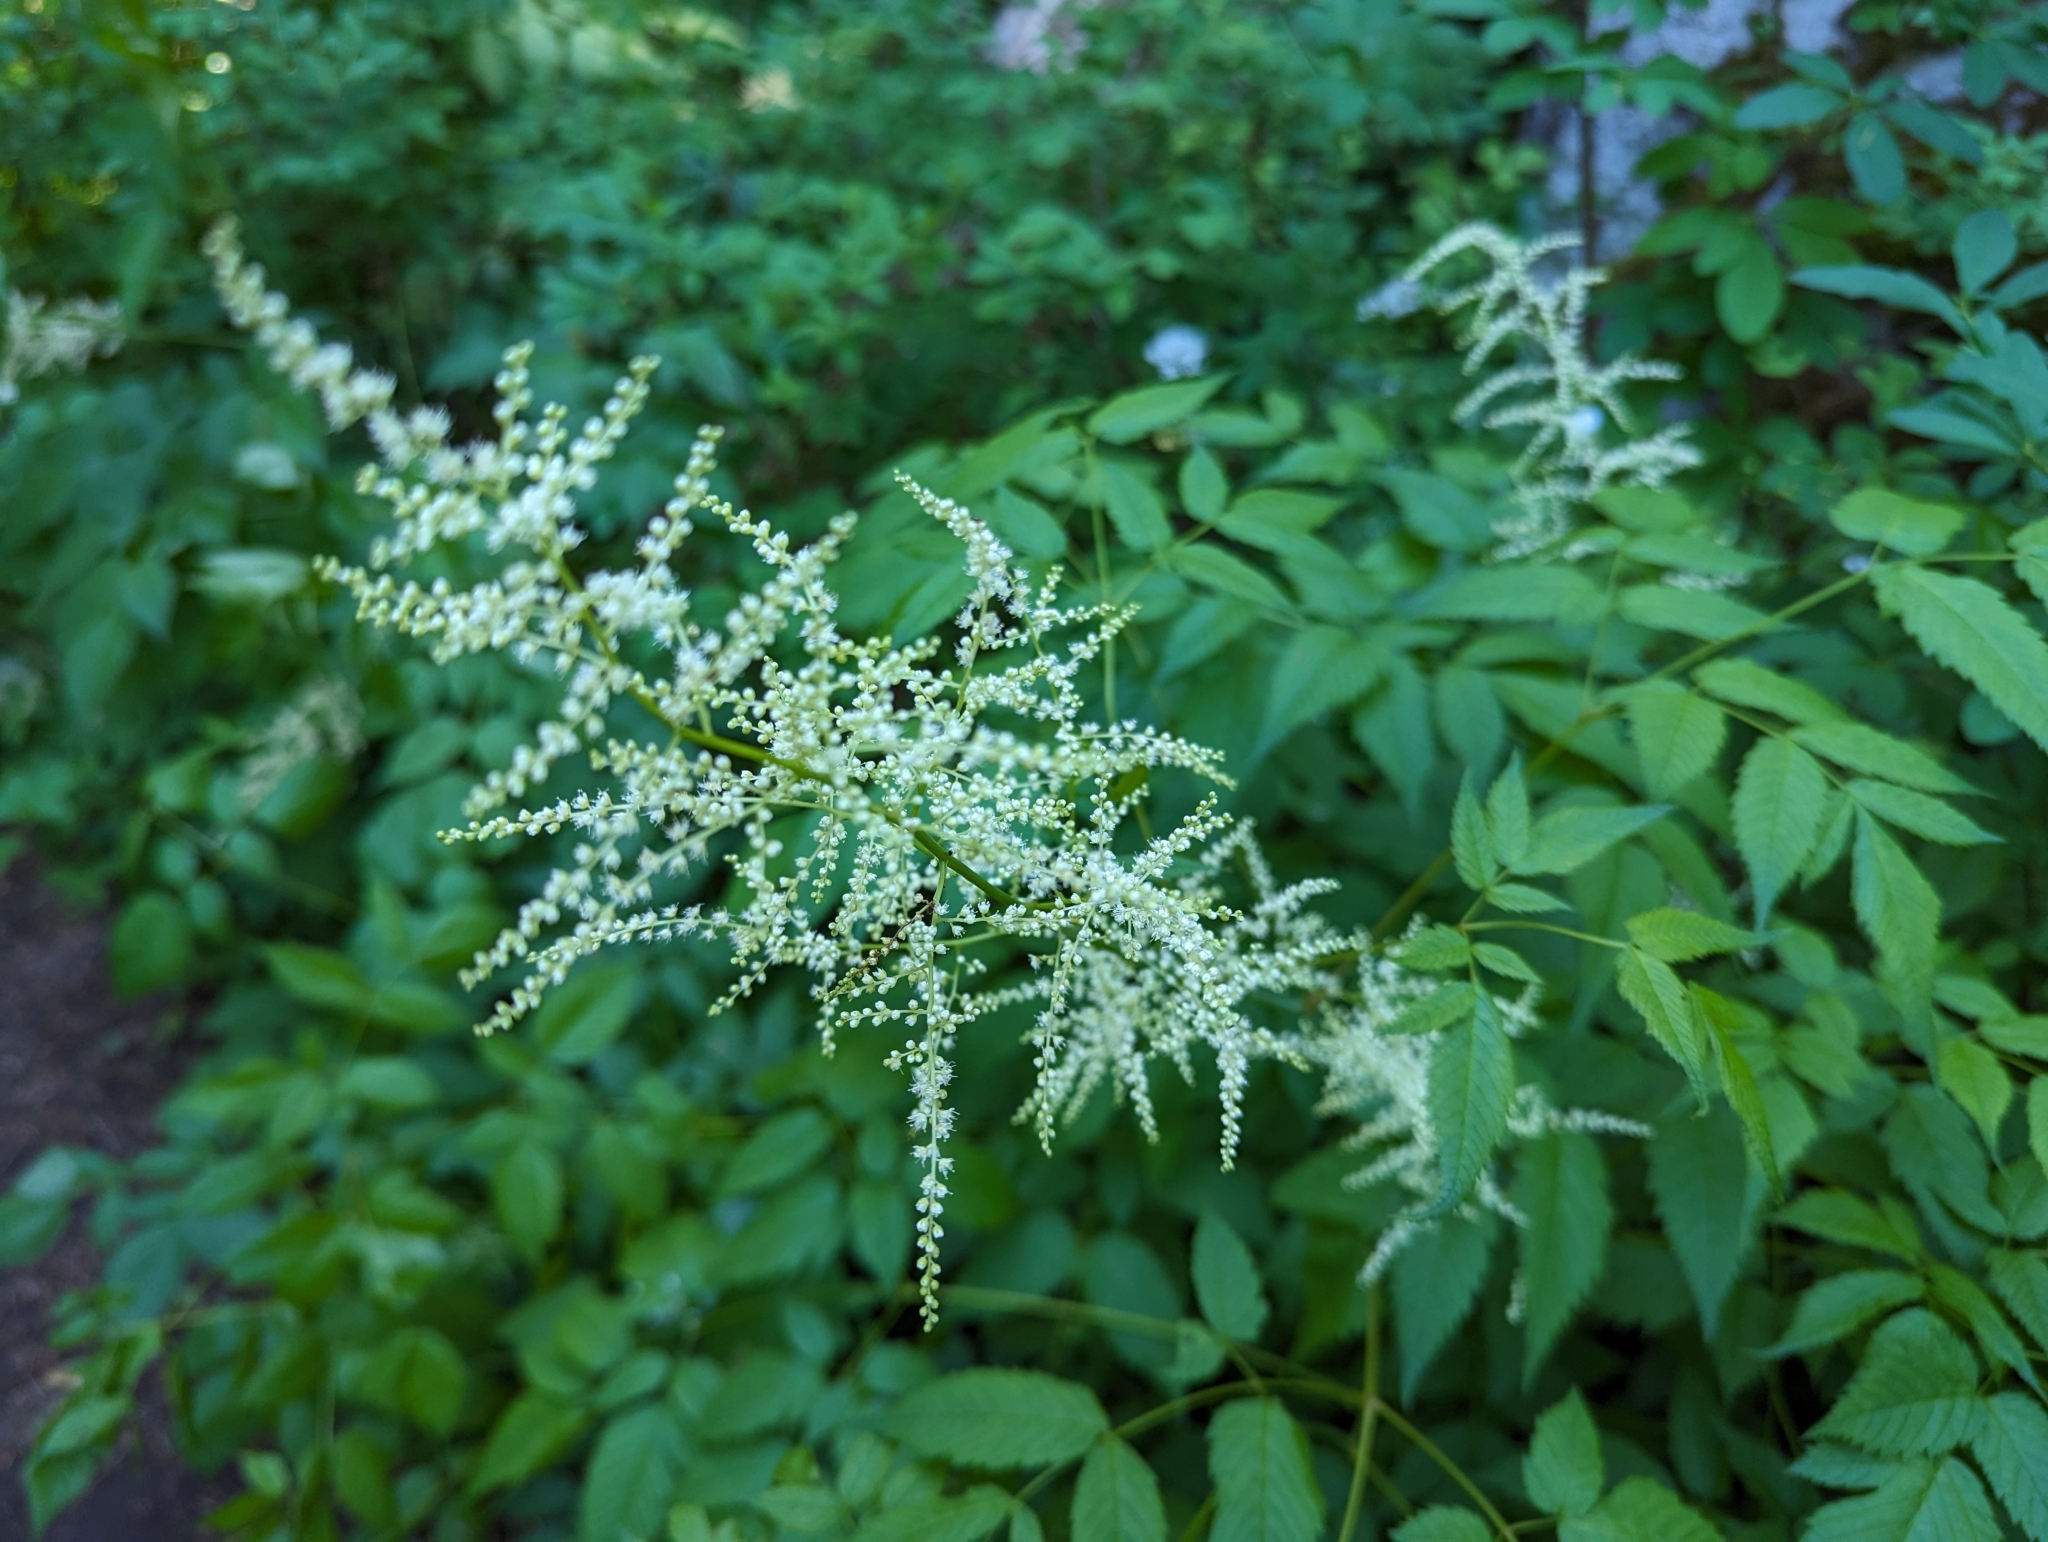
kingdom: Plantae
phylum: Tracheophyta
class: Magnoliopsida
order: Rosales
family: Rosaceae
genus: Aruncus
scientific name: Aruncus dioicus
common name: Buck's-beard
